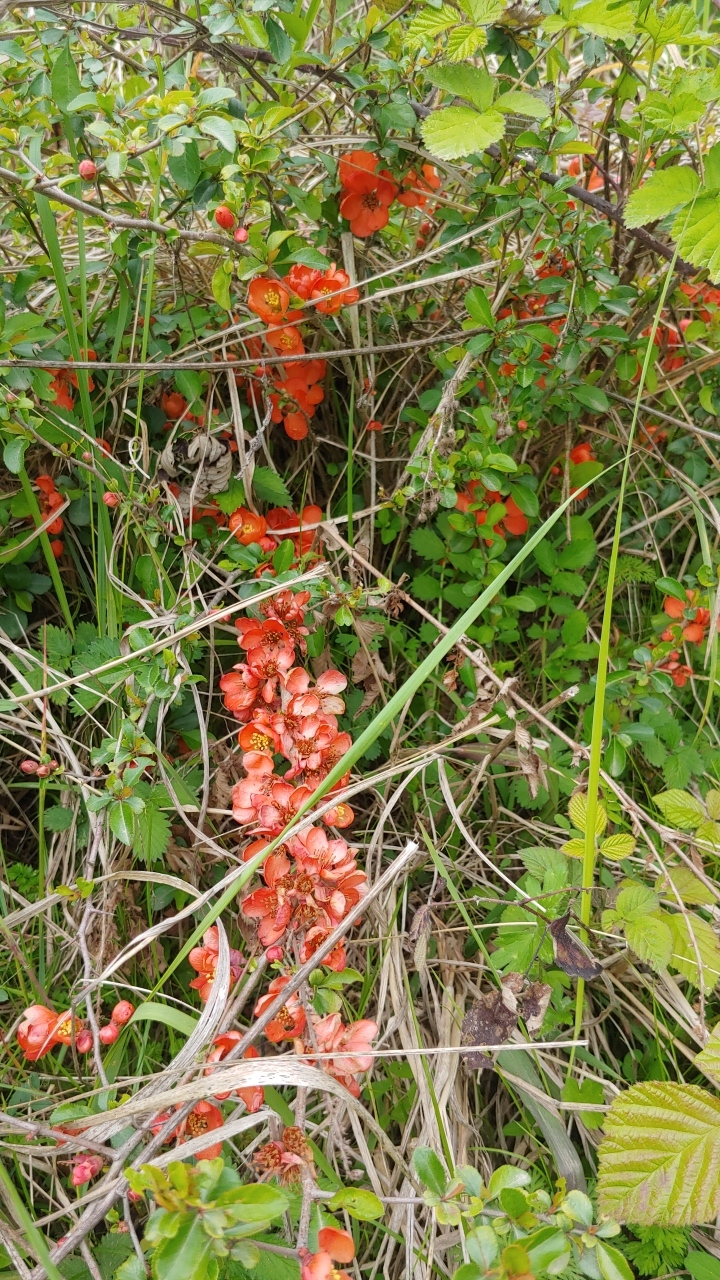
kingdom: Plantae
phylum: Tracheophyta
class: Magnoliopsida
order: Rosales
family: Rosaceae
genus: Chaenomeles
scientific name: Chaenomeles japonica
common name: Japanese quince
